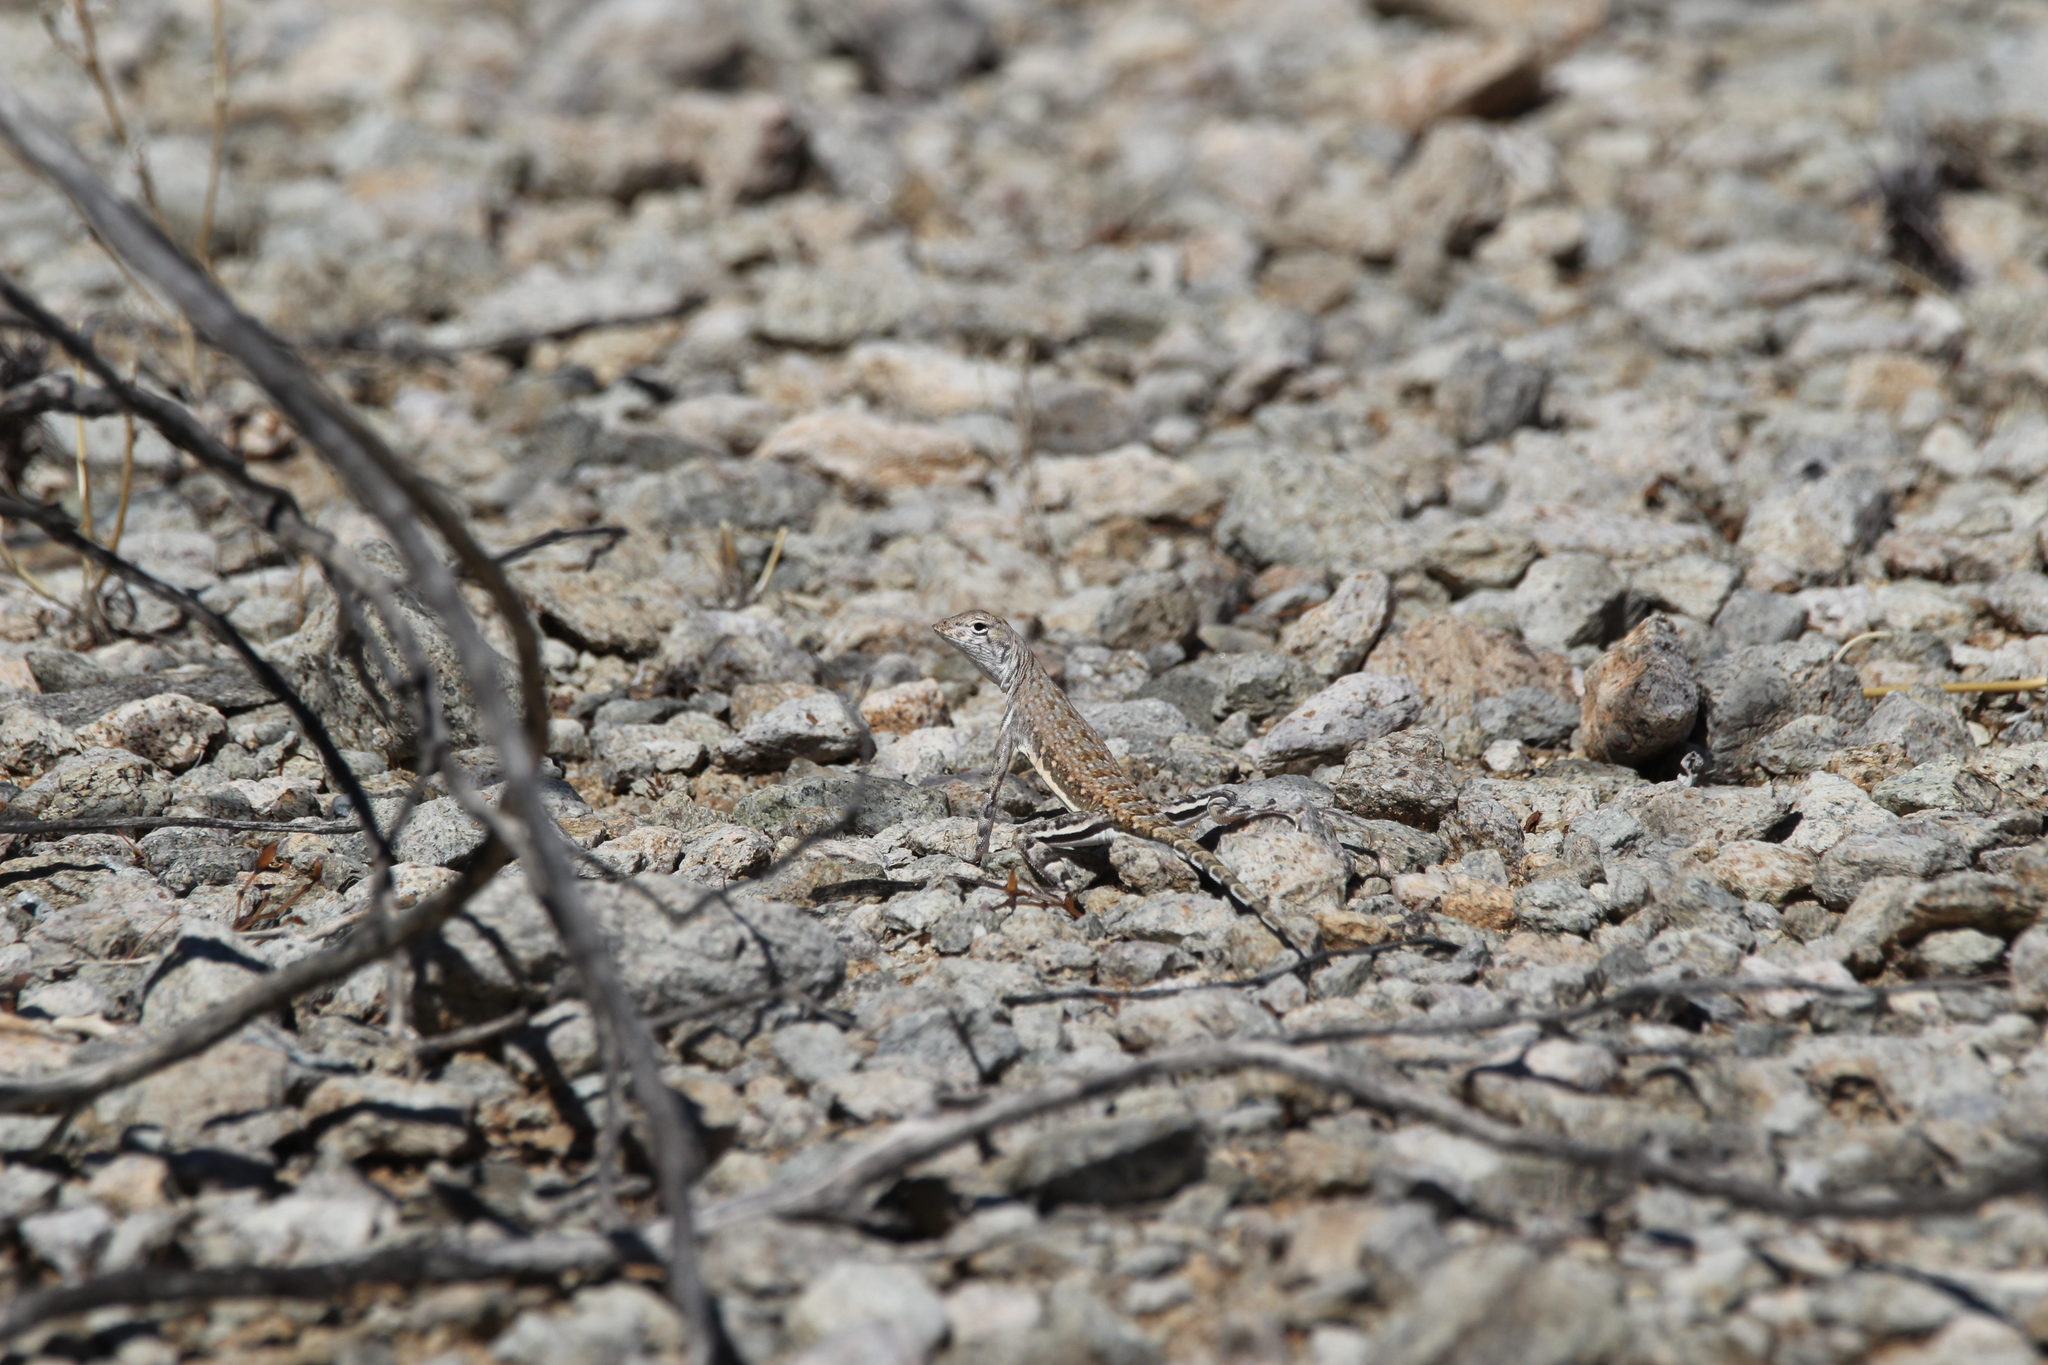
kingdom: Animalia
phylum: Chordata
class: Squamata
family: Phrynosomatidae
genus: Callisaurus
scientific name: Callisaurus draconoides
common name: Zebra-tailed lizard
